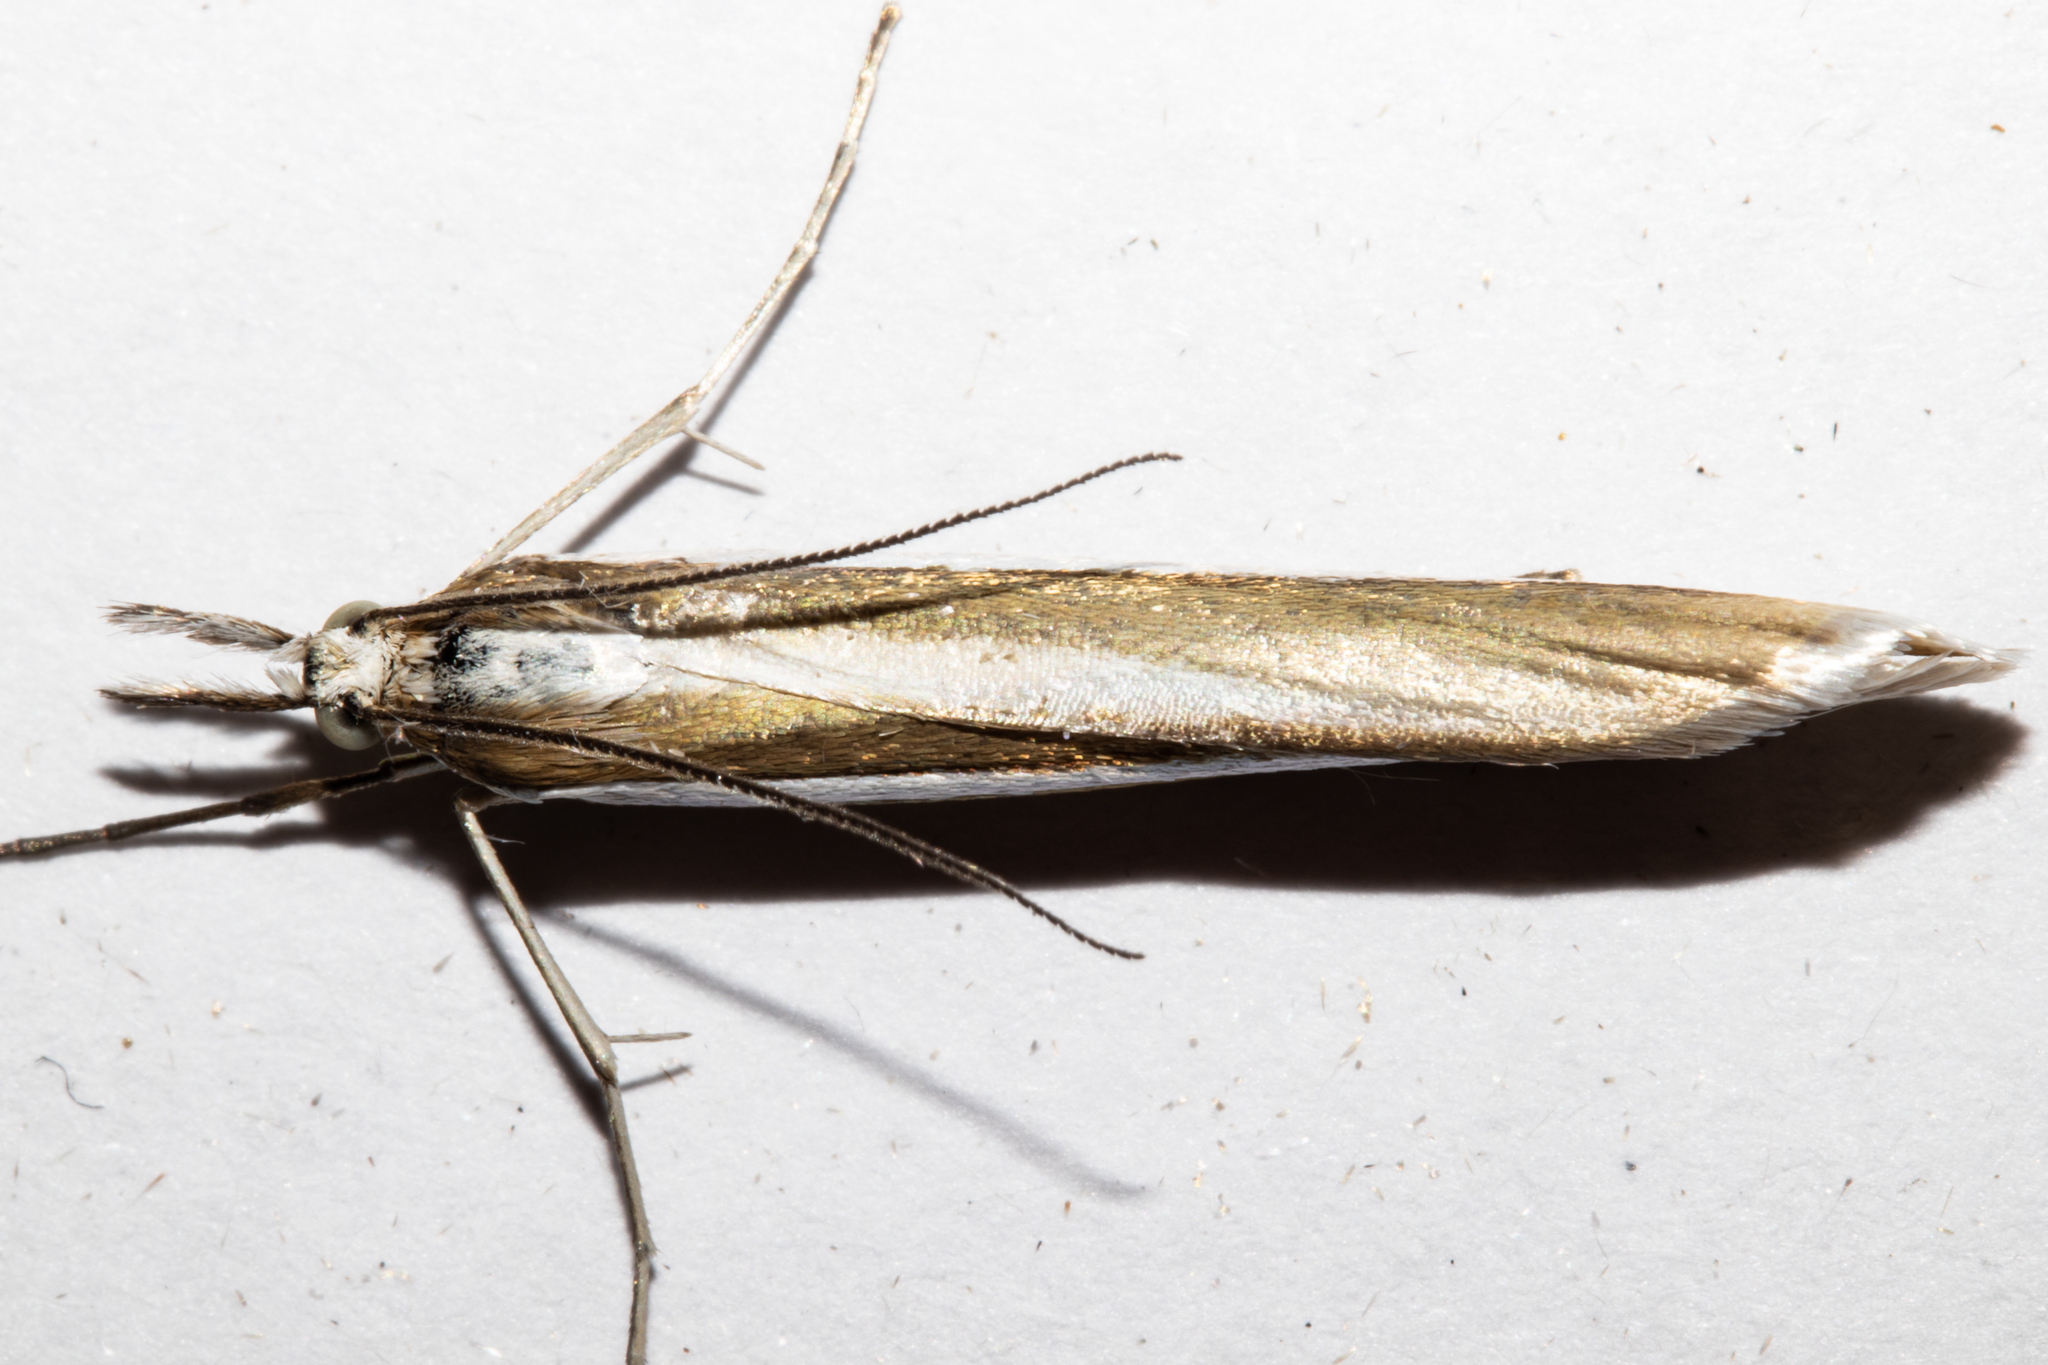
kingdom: Animalia
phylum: Arthropoda
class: Insecta
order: Lepidoptera
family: Crambidae
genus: Orocrambus
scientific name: Orocrambus siriellus
